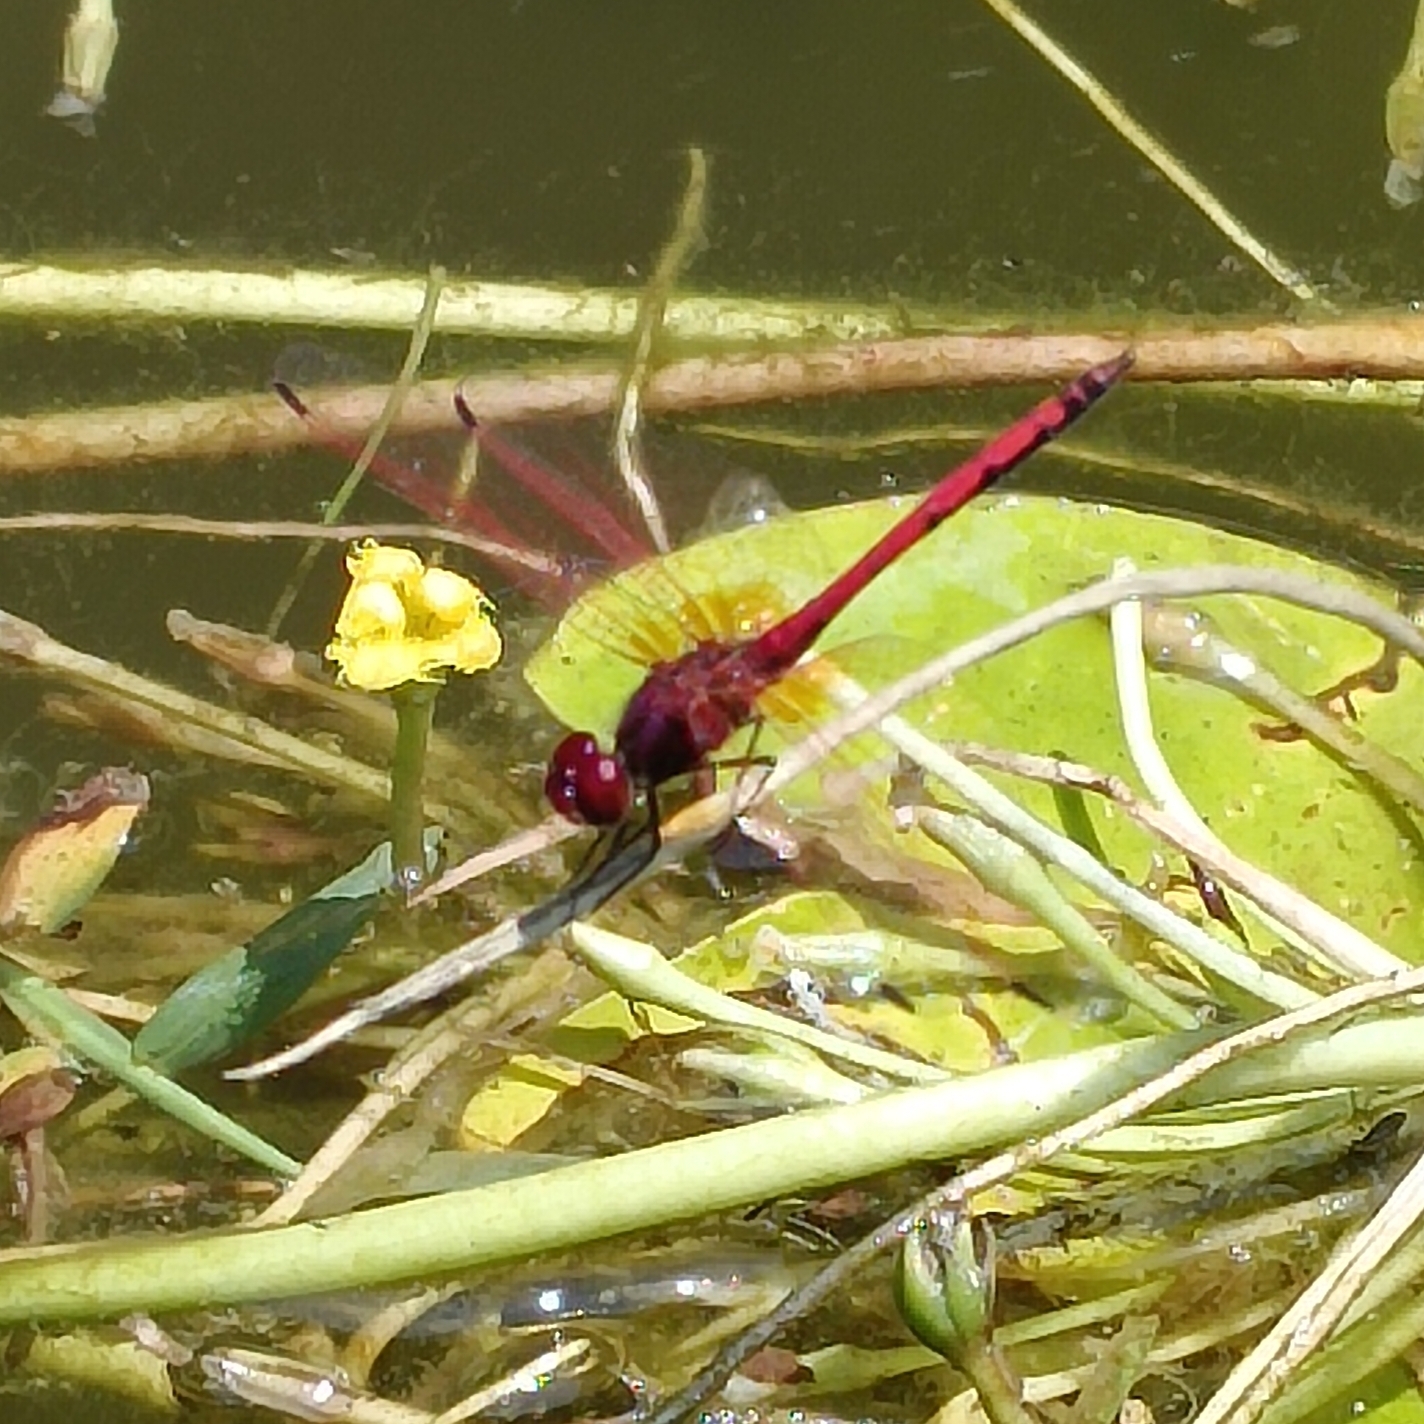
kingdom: Animalia
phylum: Arthropoda
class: Insecta
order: Odonata
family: Libellulidae
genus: Trithemis
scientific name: Trithemis arteriosa
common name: Red-veined dropwing
